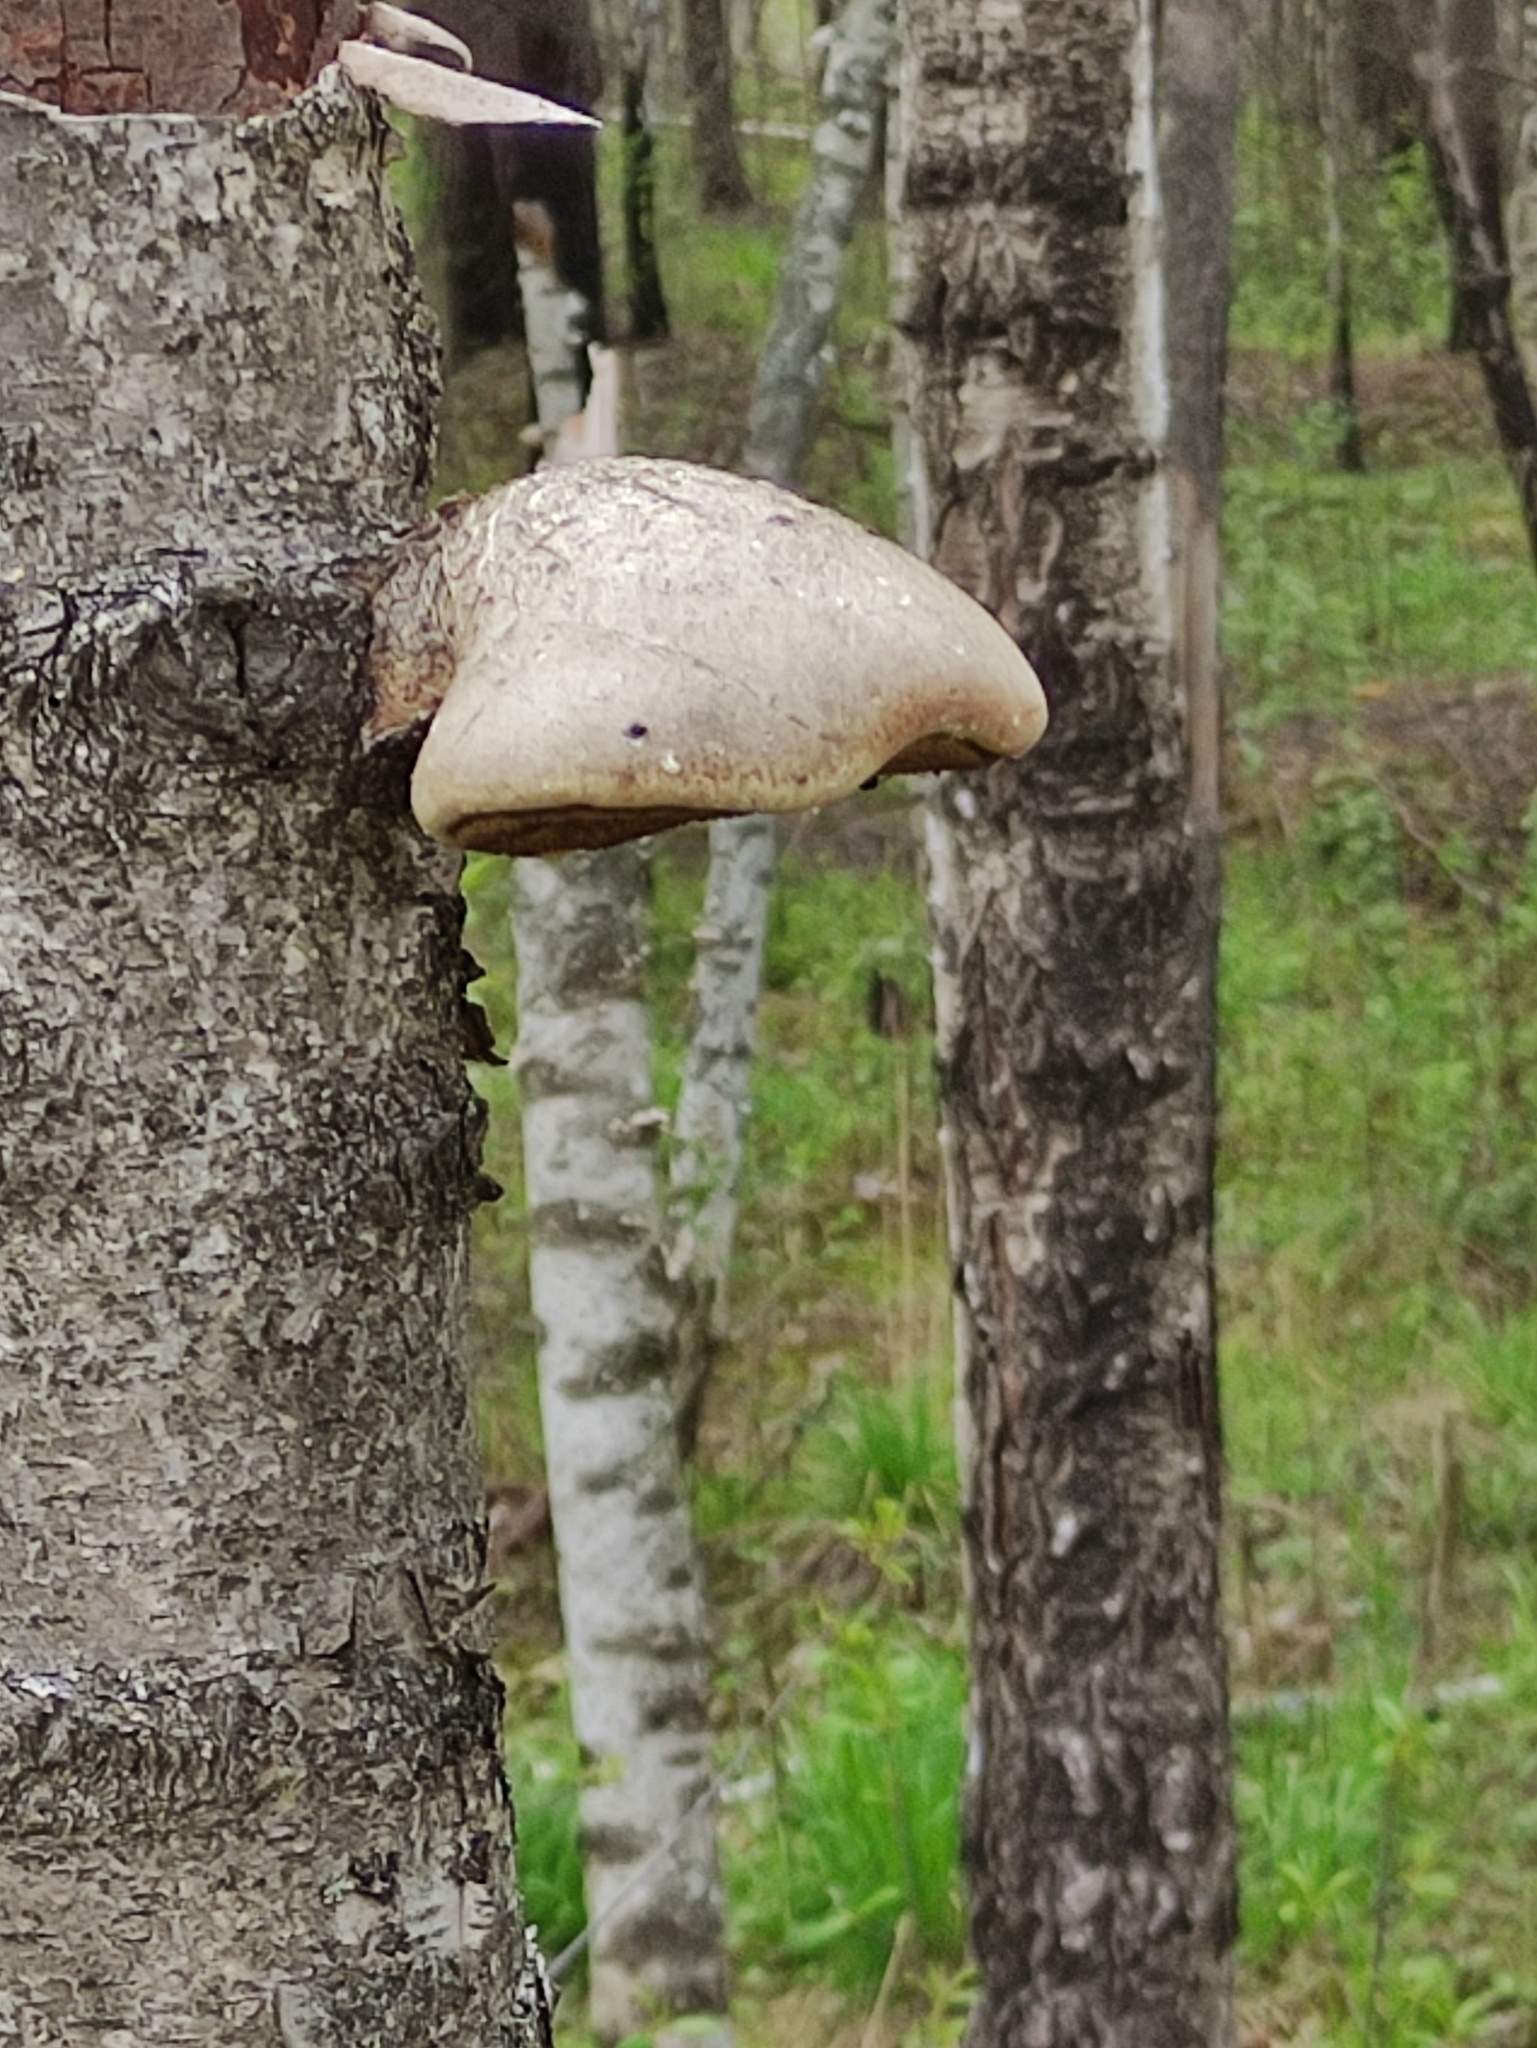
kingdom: Fungi
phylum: Basidiomycota
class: Agaricomycetes
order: Polyporales
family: Fomitopsidaceae
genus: Fomitopsis
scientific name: Fomitopsis betulina
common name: Birch polypore
